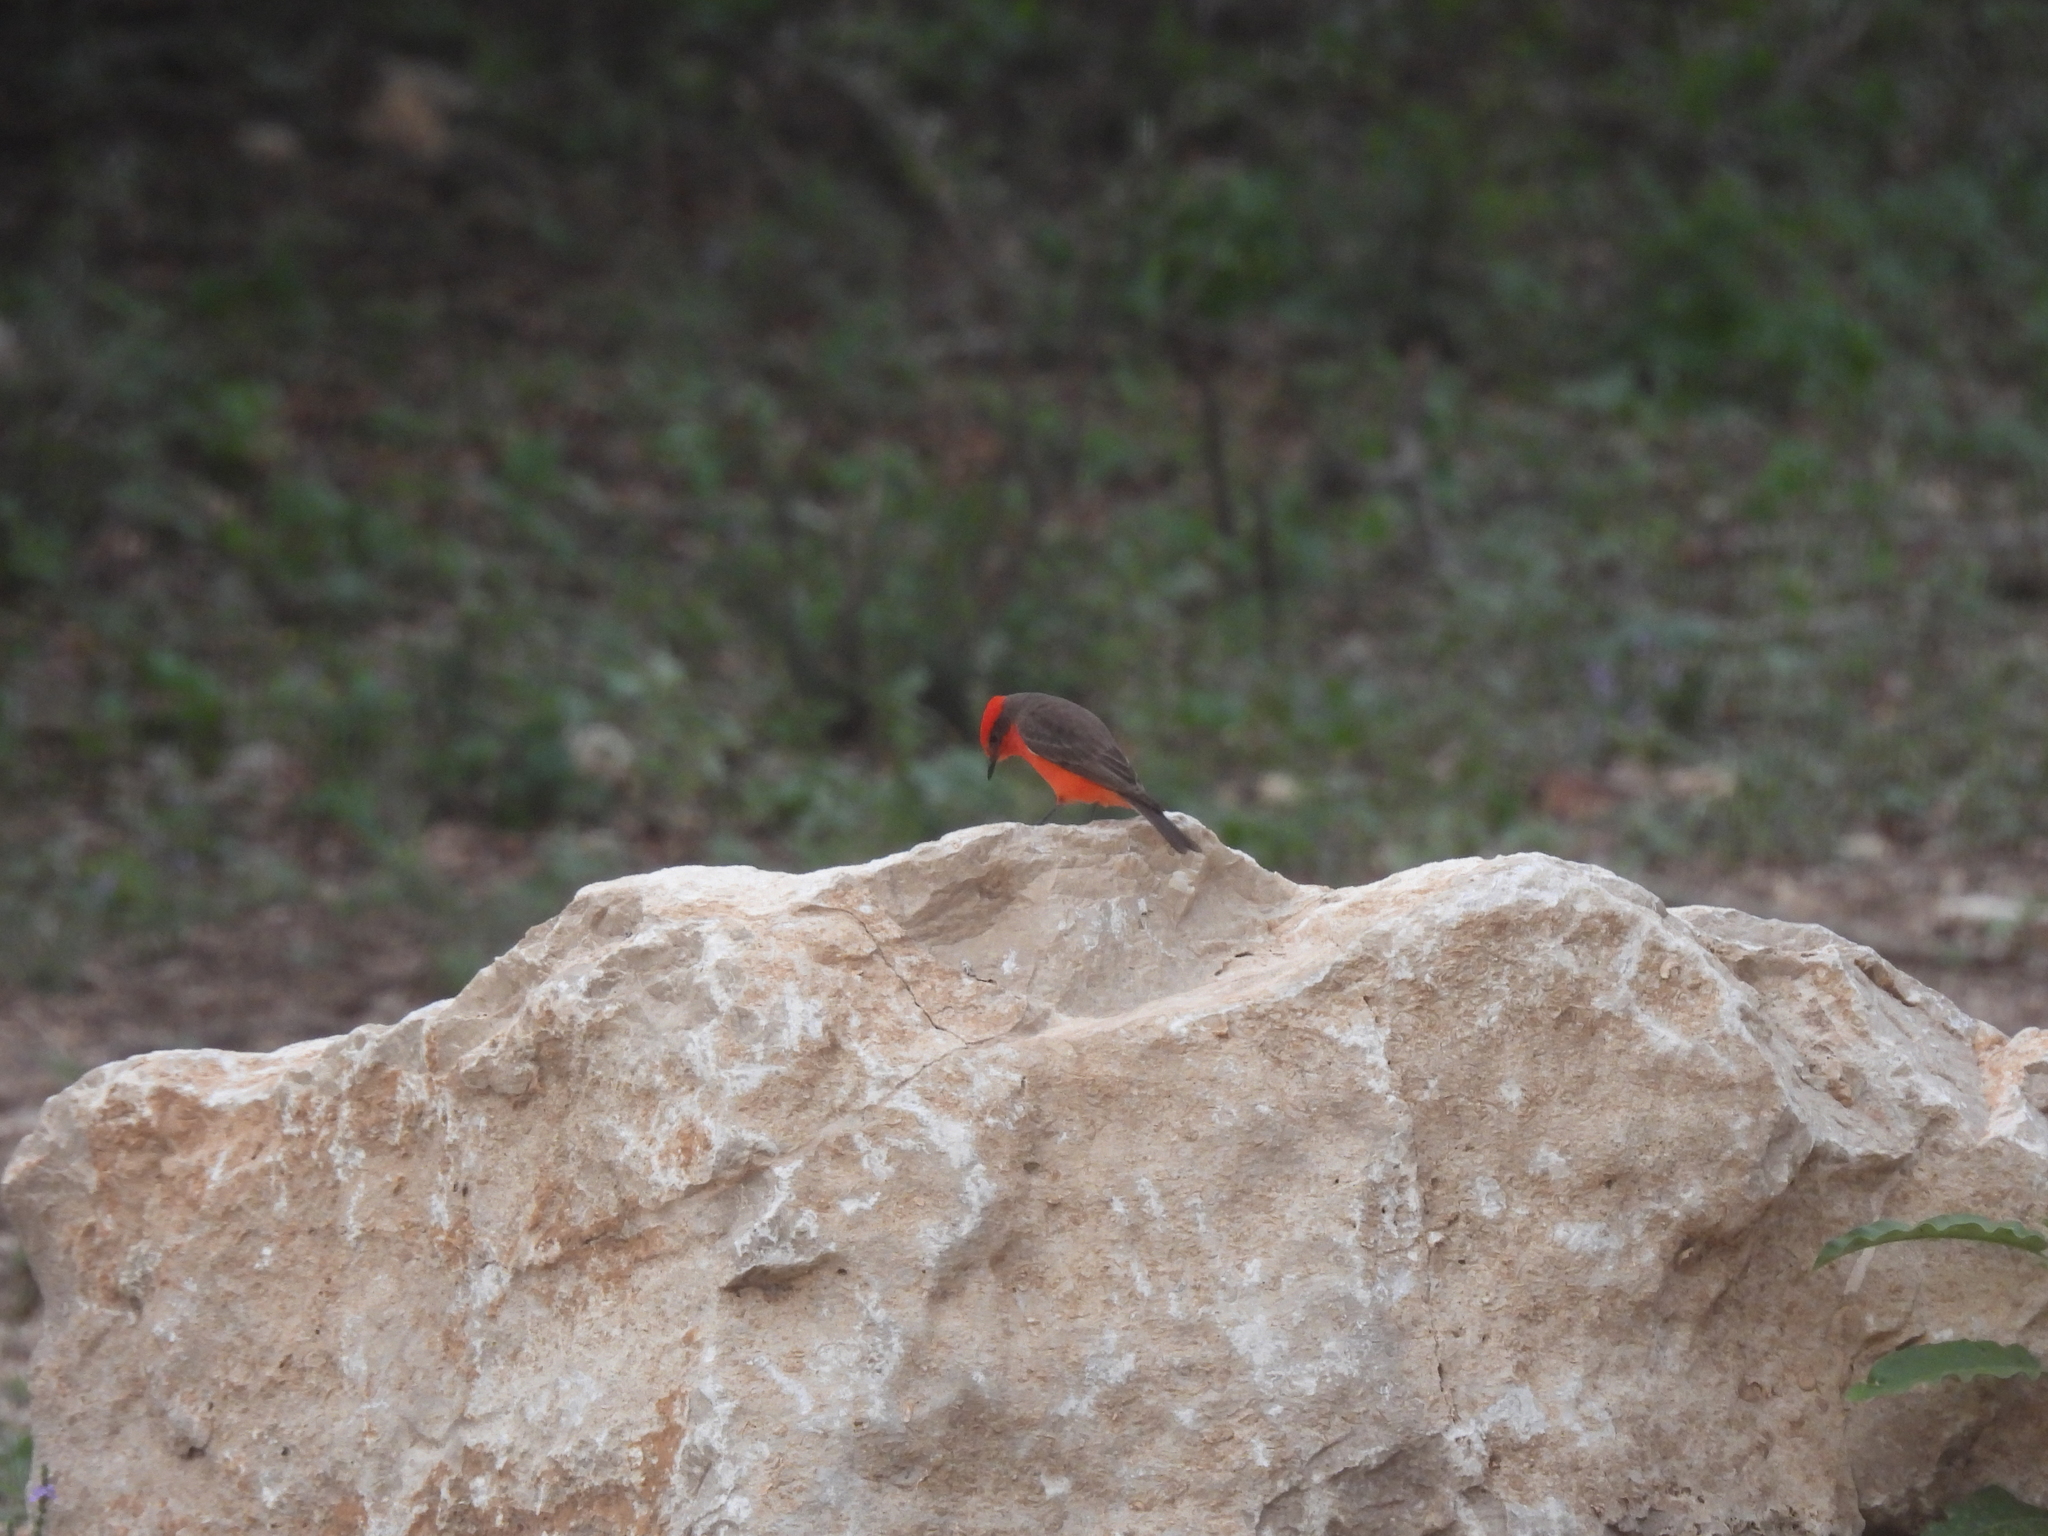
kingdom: Animalia
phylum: Chordata
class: Aves
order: Passeriformes
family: Tyrannidae
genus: Pyrocephalus
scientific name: Pyrocephalus rubinus
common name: Vermilion flycatcher
